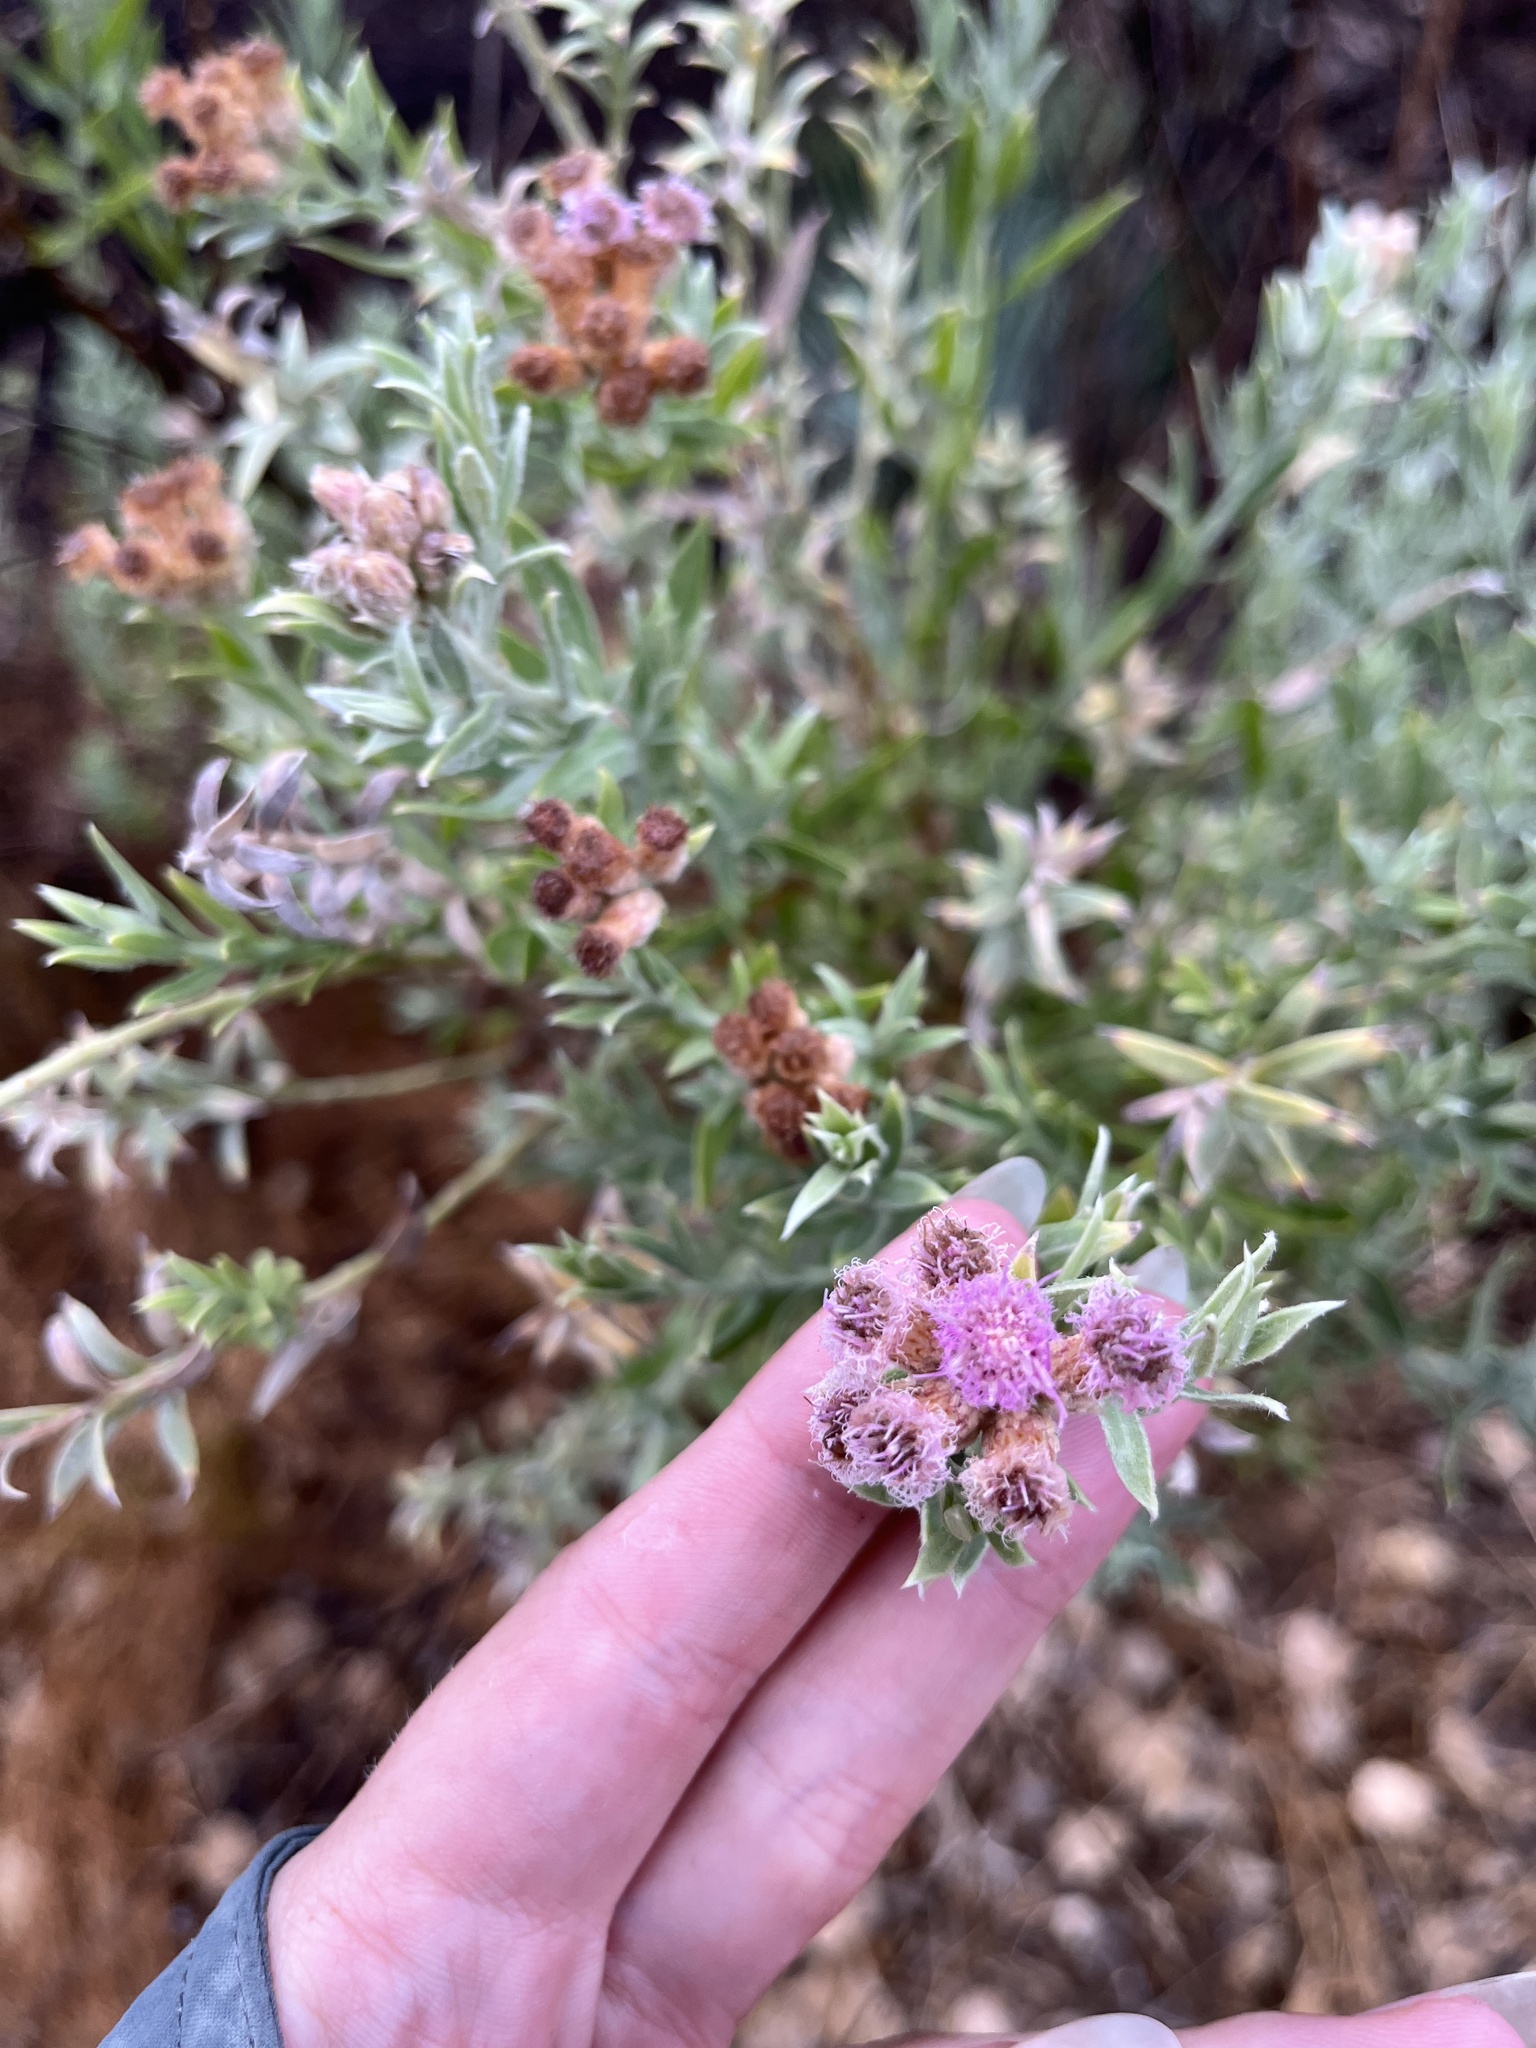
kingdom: Plantae
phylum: Tracheophyta
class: Magnoliopsida
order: Asterales
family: Asteraceae
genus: Pluchea
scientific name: Pluchea sericea
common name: Arrow-weed
